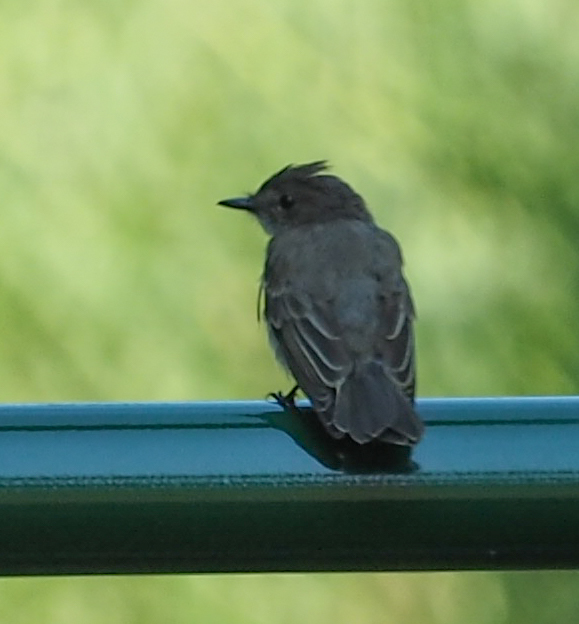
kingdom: Animalia
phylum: Chordata
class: Aves
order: Passeriformes
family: Tyrannidae
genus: Sayornis
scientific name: Sayornis phoebe
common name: Eastern phoebe
